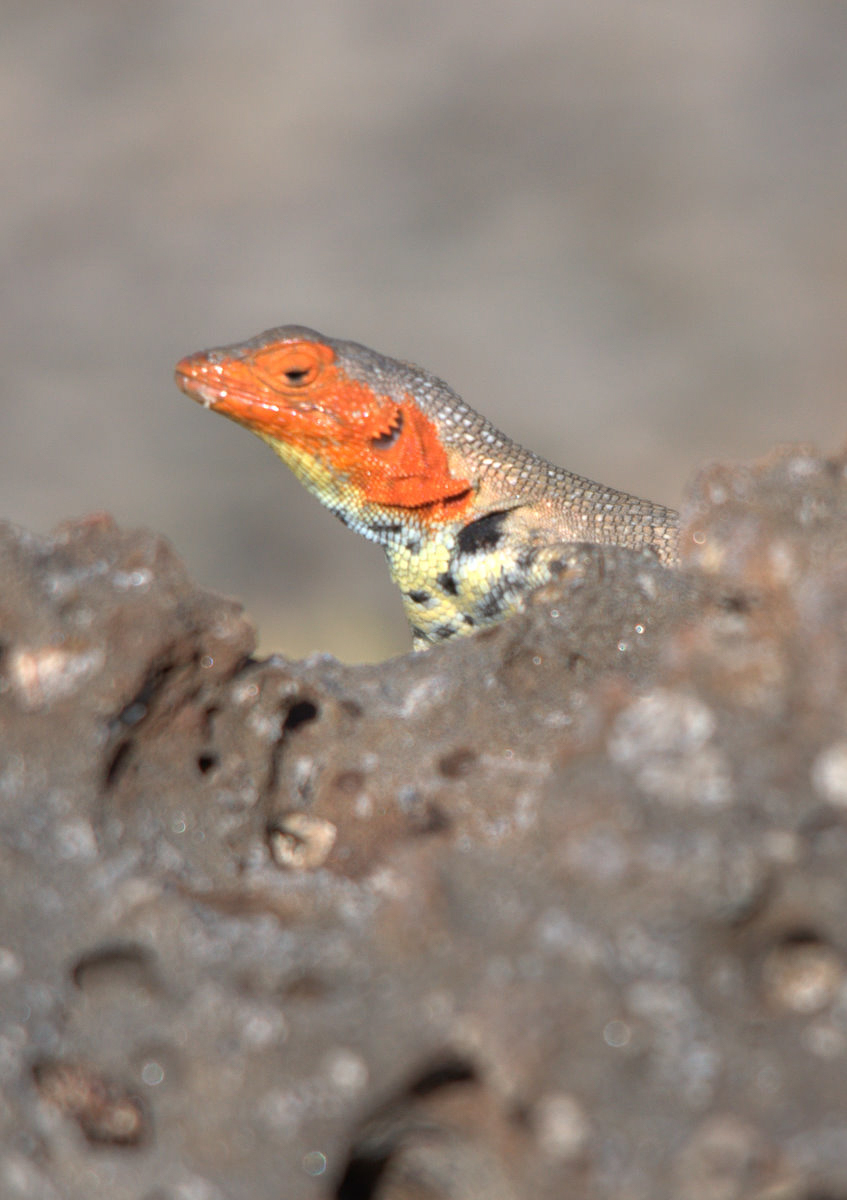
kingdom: Animalia
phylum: Chordata
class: Squamata
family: Tropiduridae
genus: Microlophus
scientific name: Microlophus indefatigabilis
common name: Galapagos lava lizard
